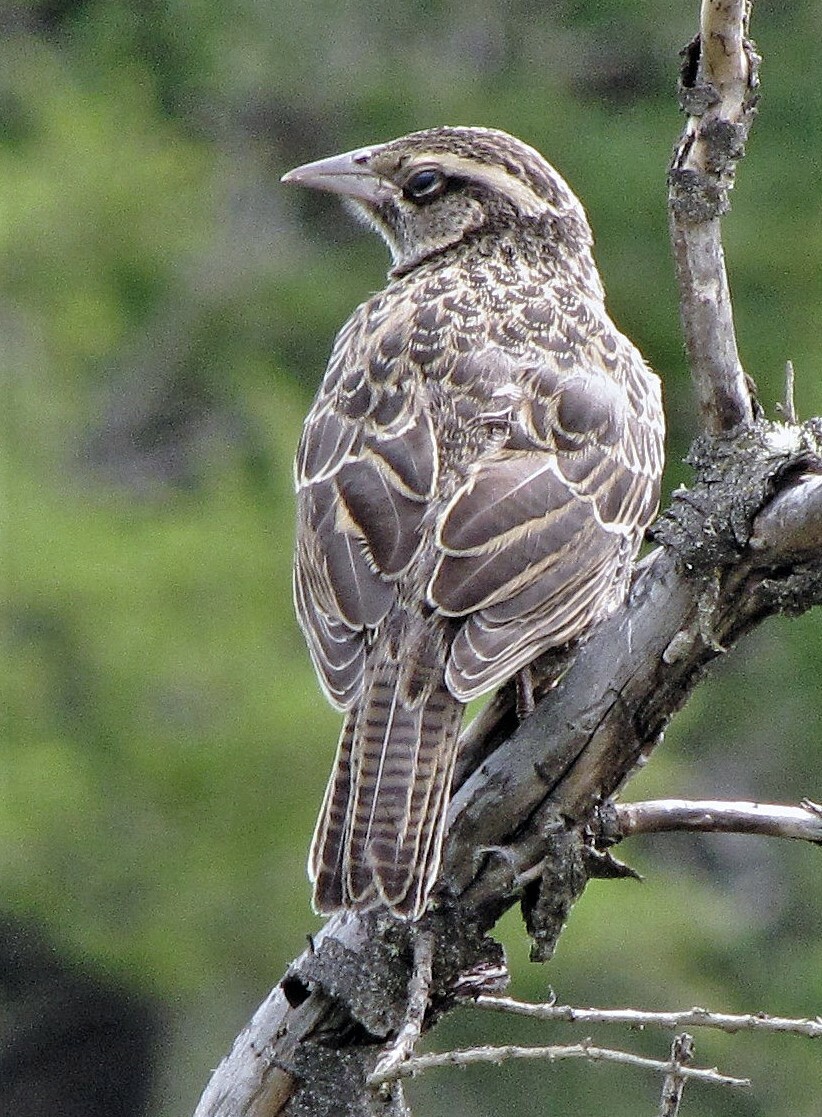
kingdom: Animalia
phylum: Chordata
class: Aves
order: Passeriformes
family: Icteridae
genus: Sturnella
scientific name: Sturnella loyca
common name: Long-tailed meadowlark
